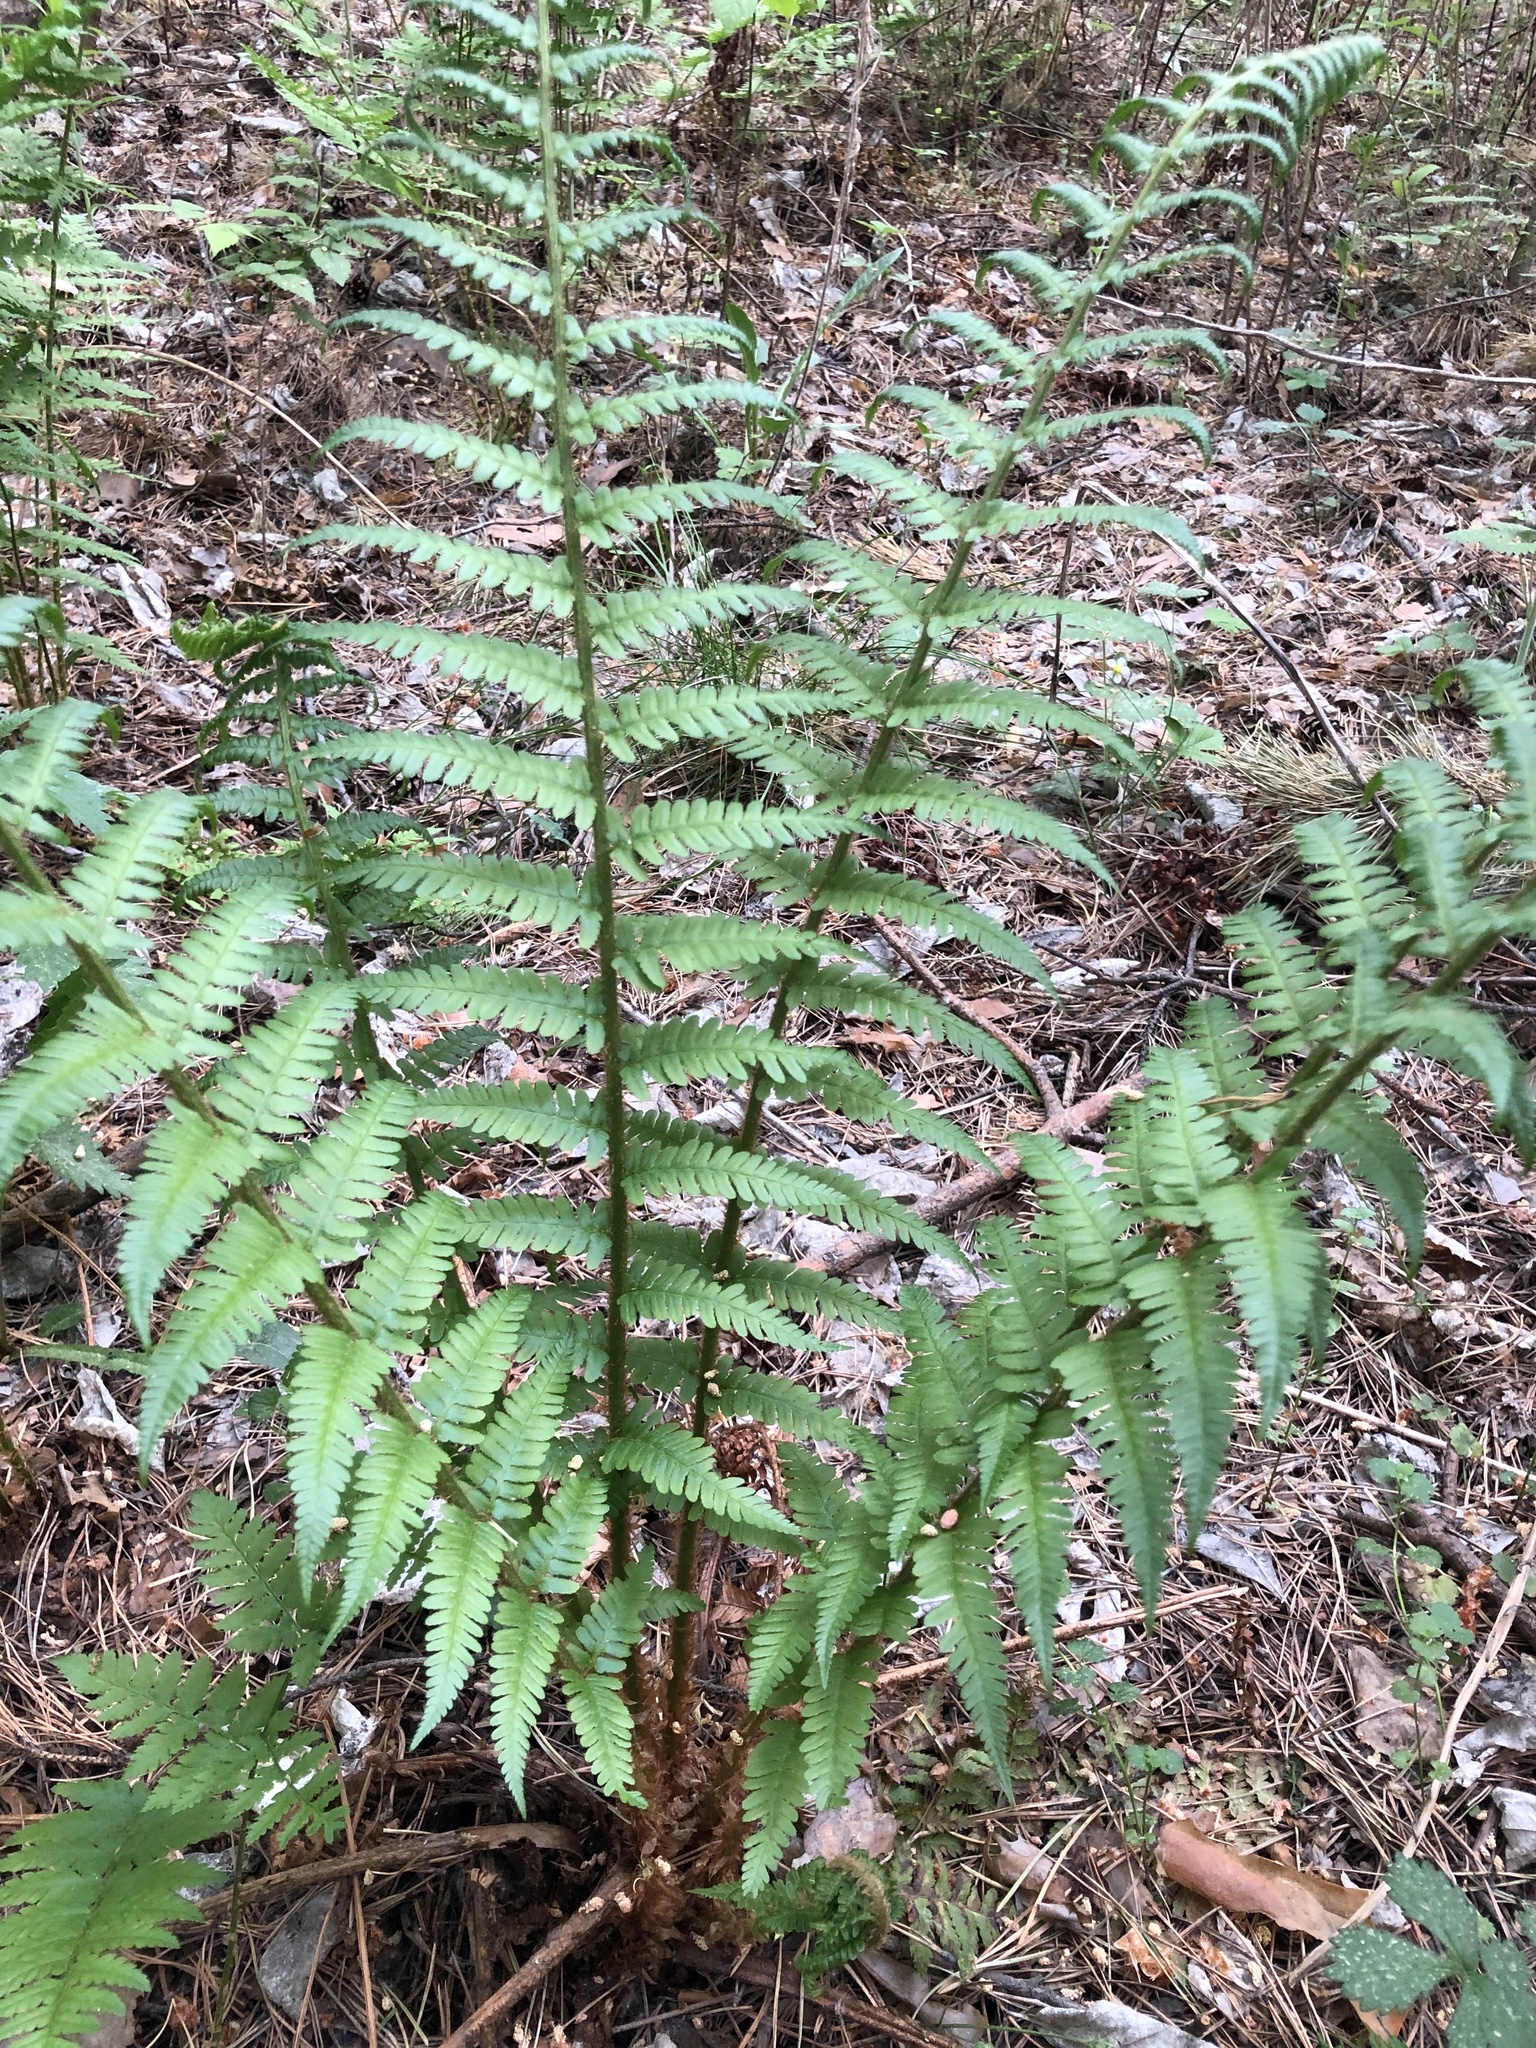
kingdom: Plantae
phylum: Tracheophyta
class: Polypodiopsida
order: Polypodiales
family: Dryopteridaceae
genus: Dryopteris
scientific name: Dryopteris filix-mas
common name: Male fern
